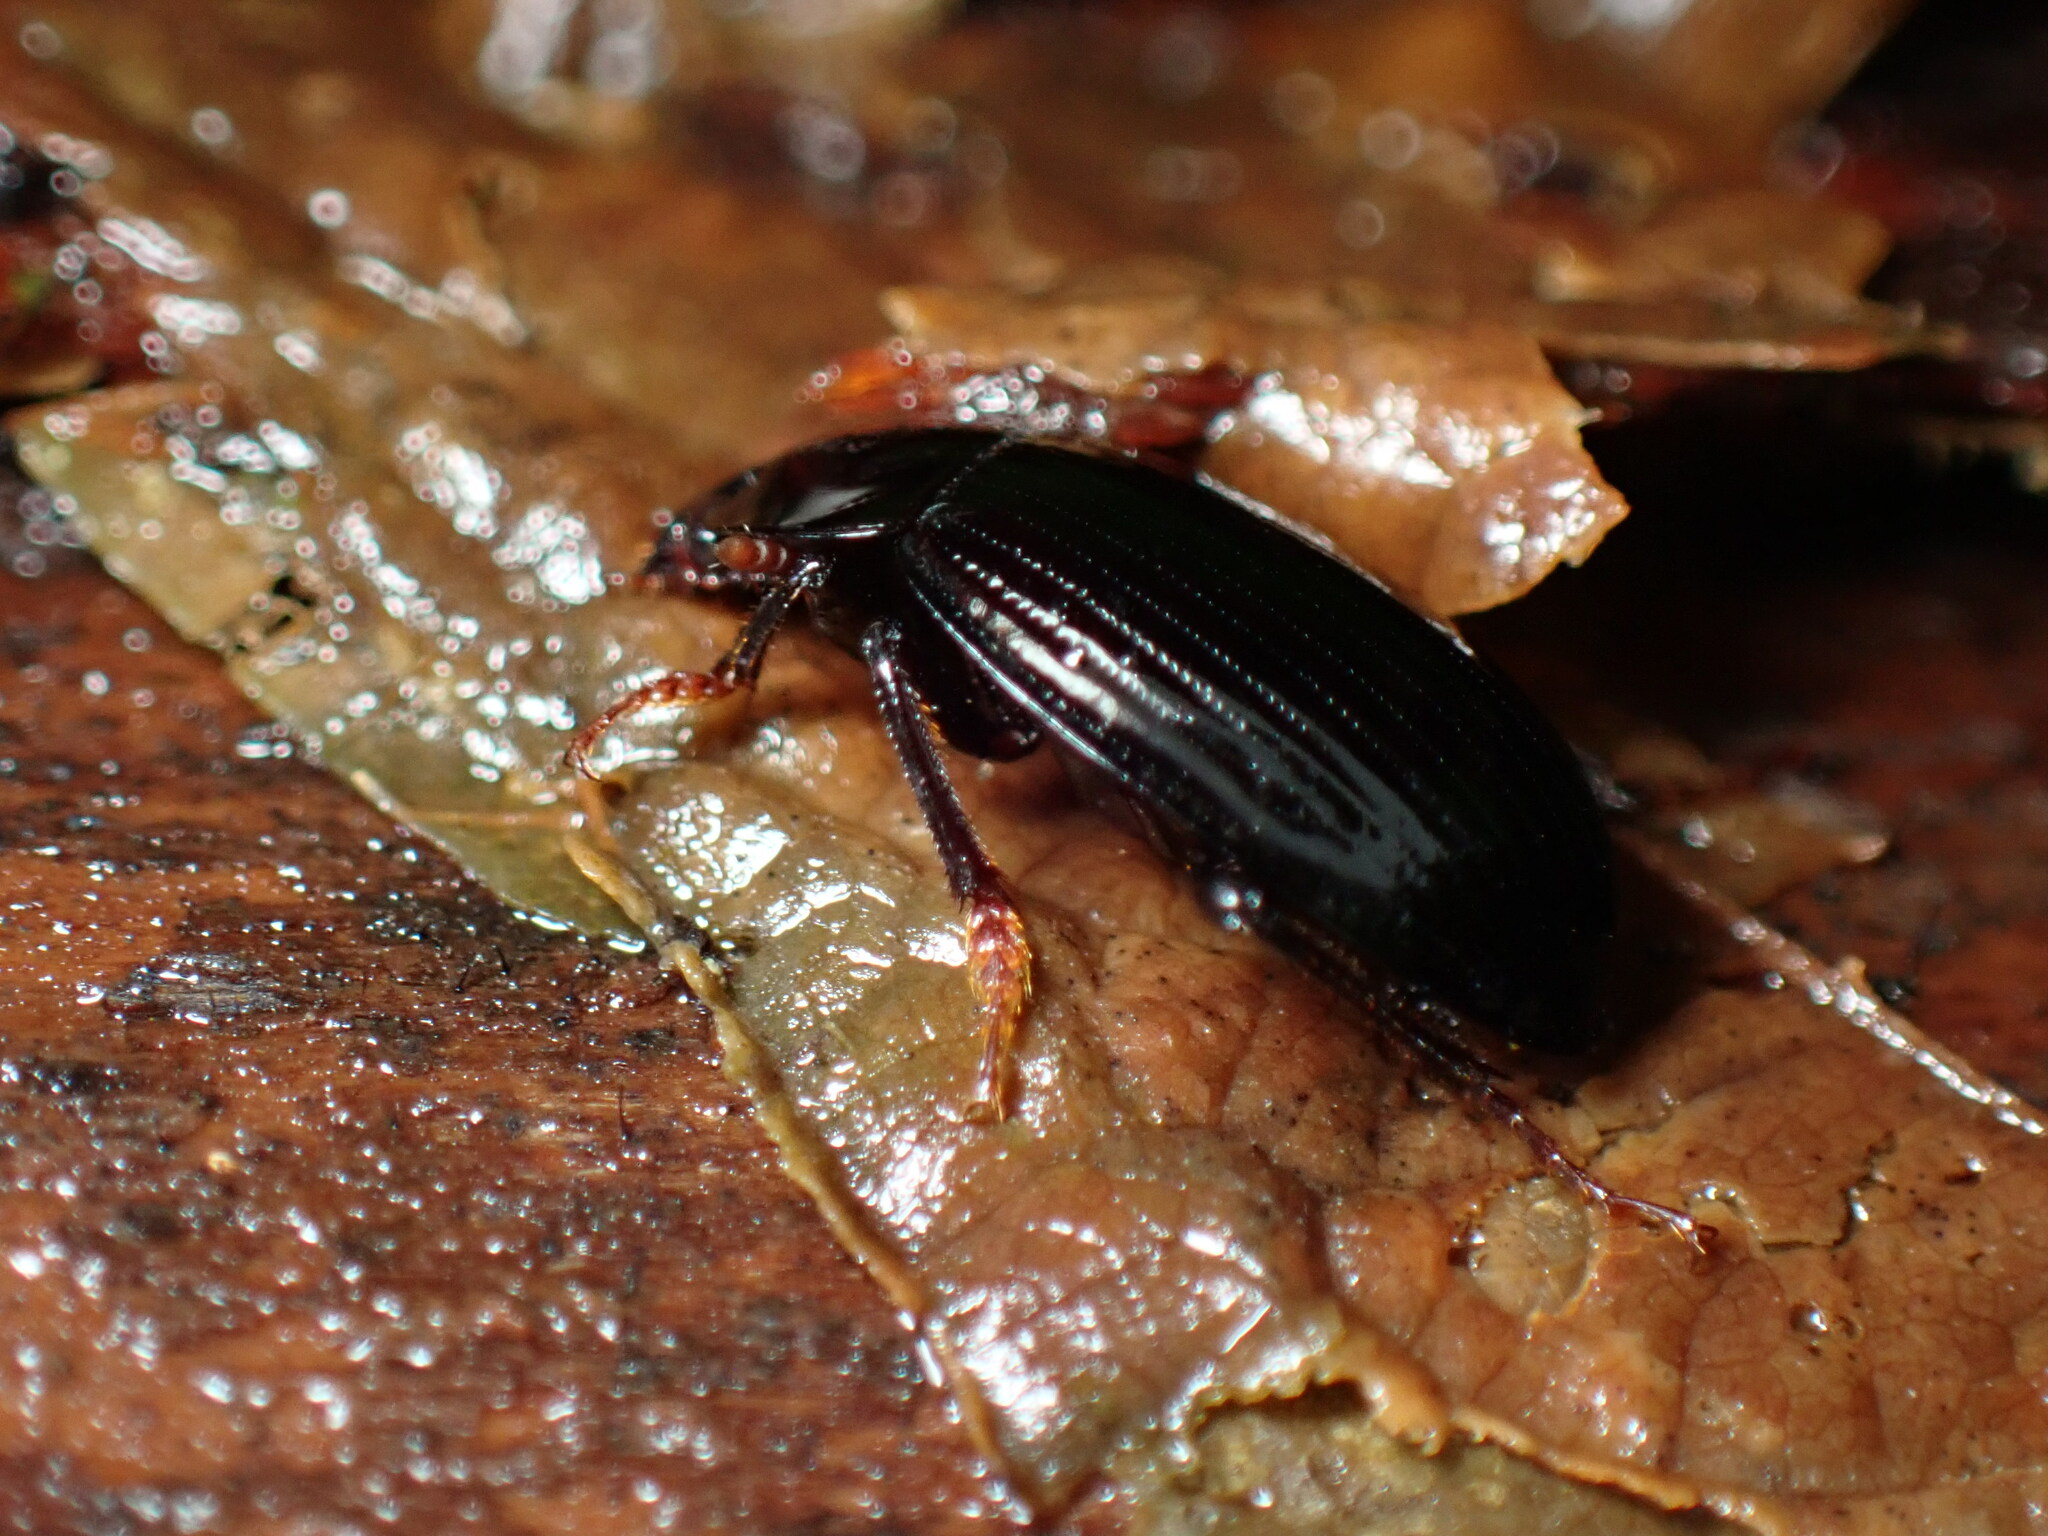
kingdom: Animalia
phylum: Arthropoda
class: Insecta
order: Coleoptera
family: Agyrtidae
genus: Necrophilus
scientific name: Necrophilus hydrophiloides
